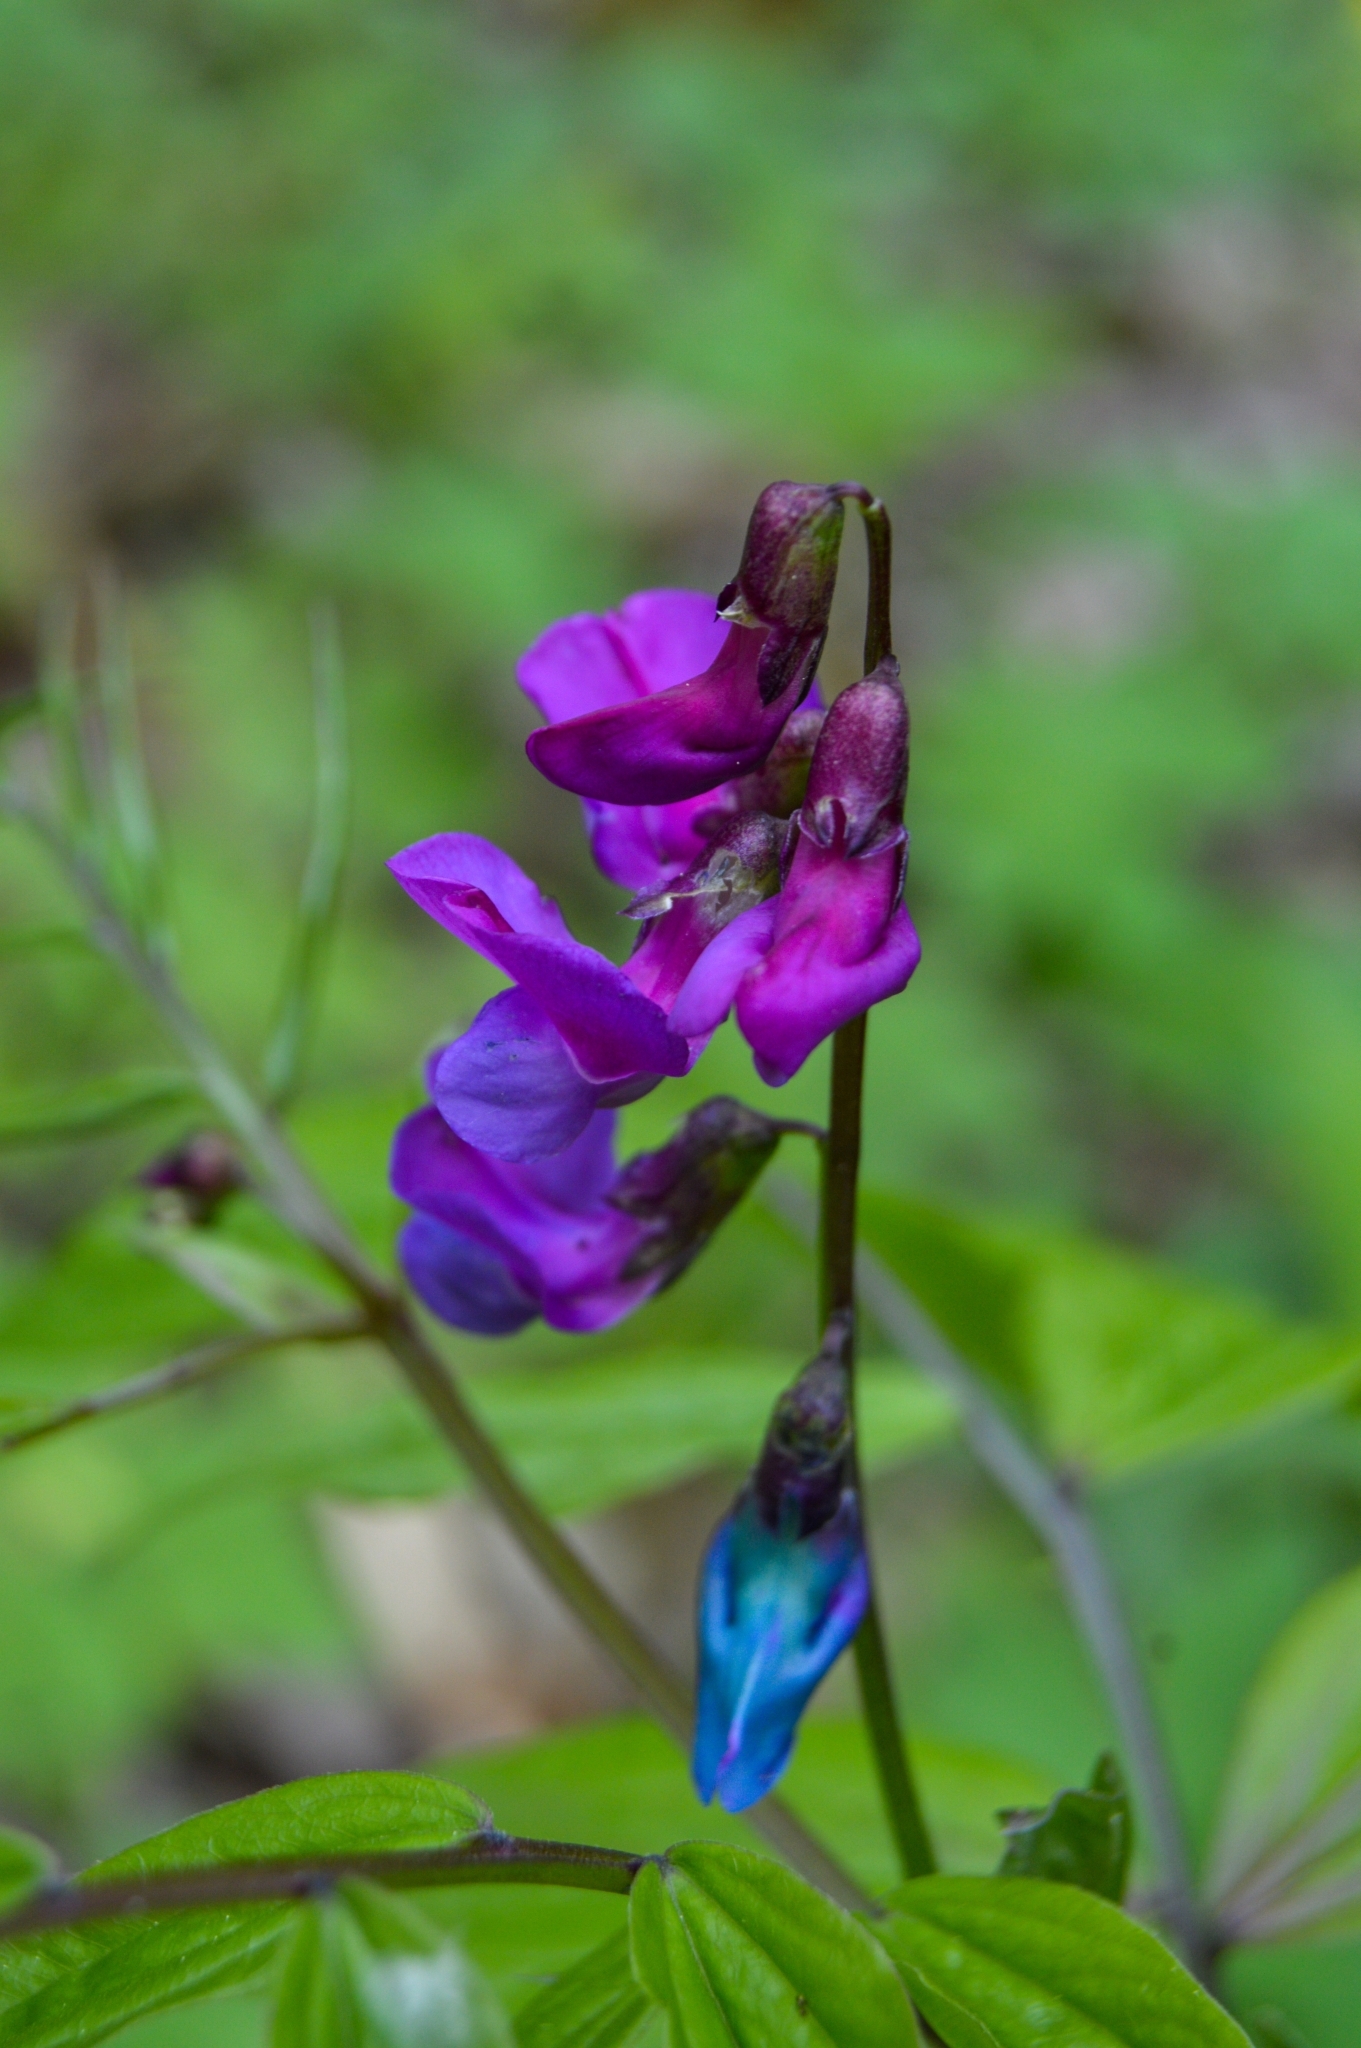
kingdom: Plantae
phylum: Tracheophyta
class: Magnoliopsida
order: Fabales
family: Fabaceae
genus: Lathyrus
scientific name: Lathyrus vernus
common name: Spring pea
